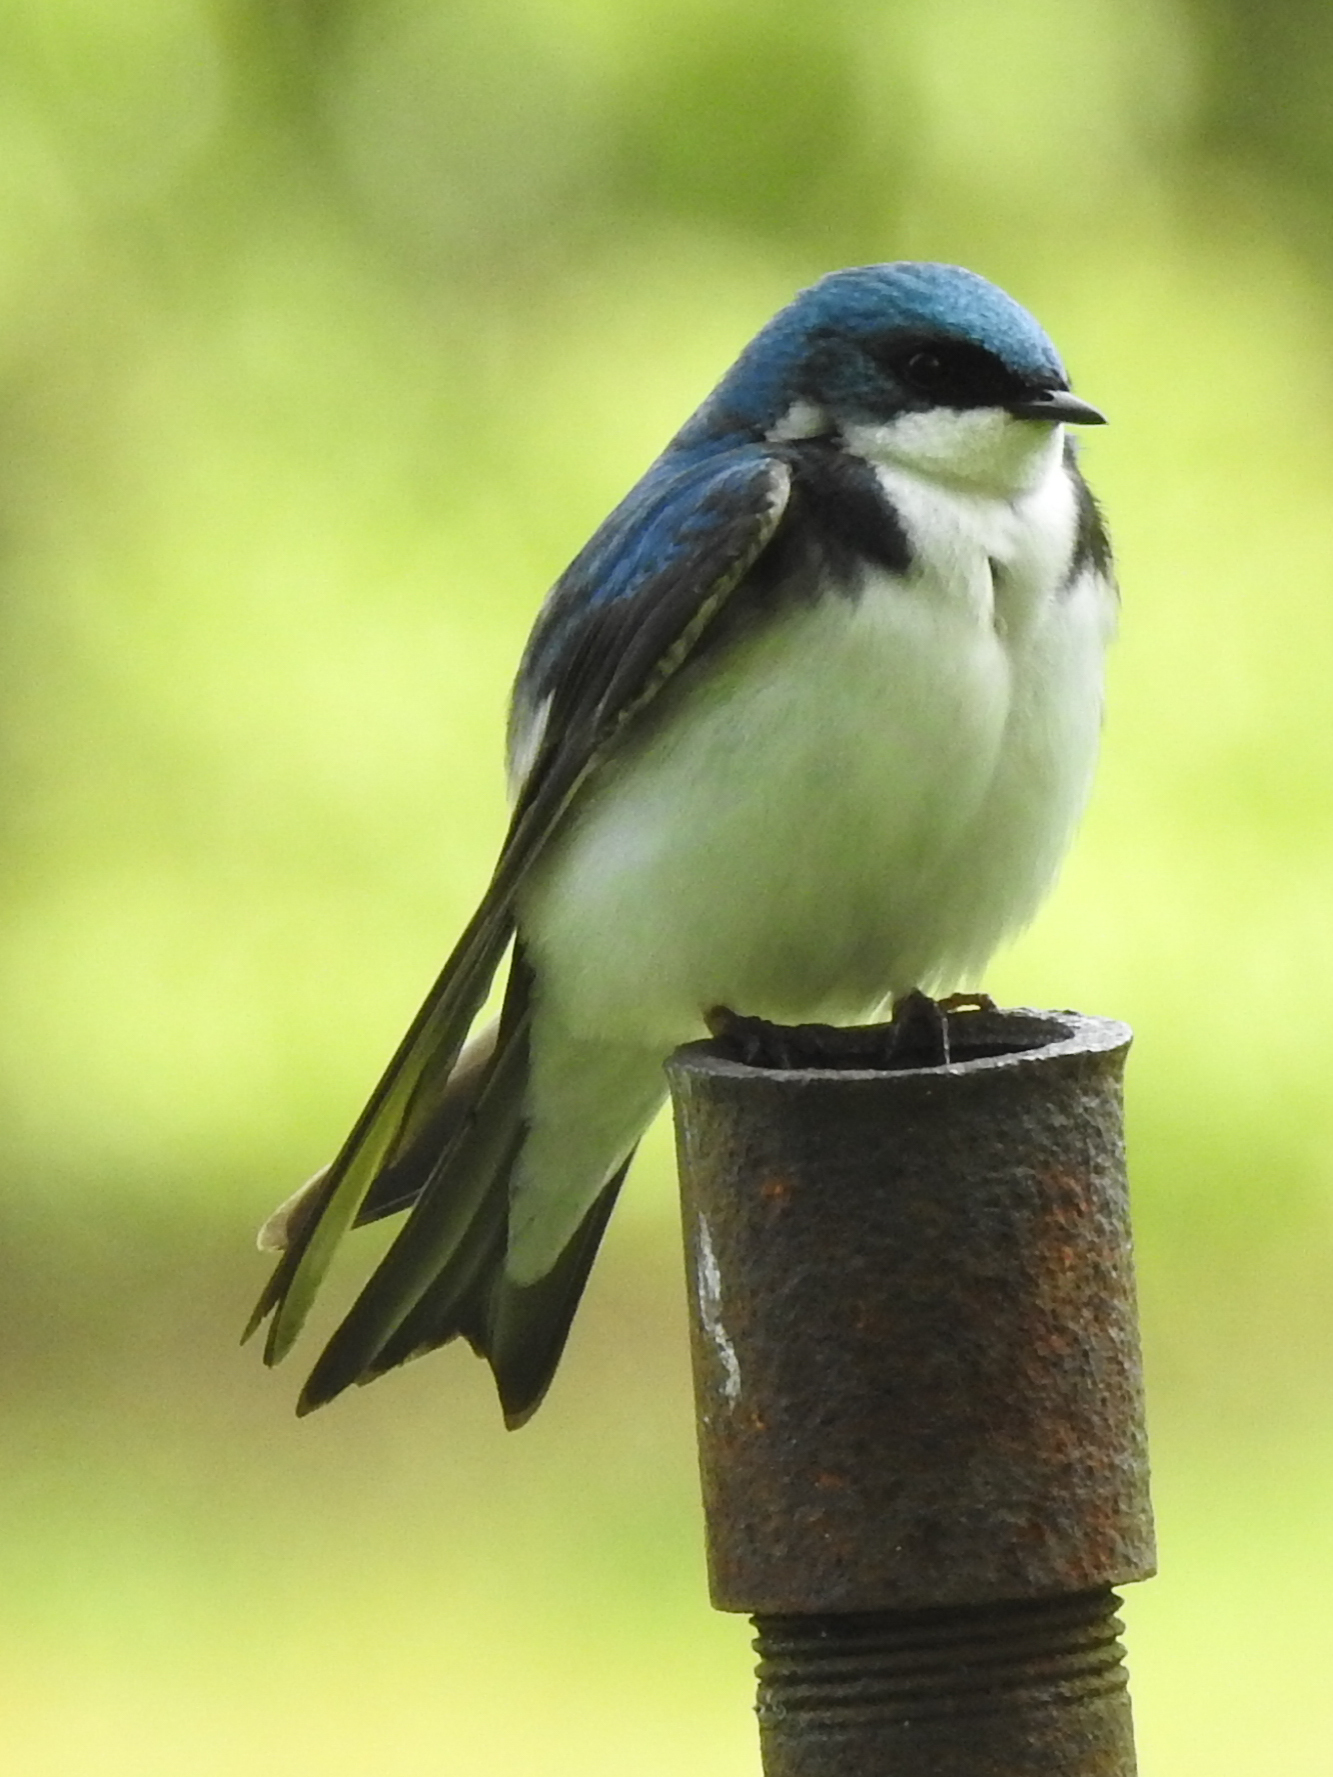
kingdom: Animalia
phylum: Chordata
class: Aves
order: Passeriformes
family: Hirundinidae
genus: Tachycineta
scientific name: Tachycineta bicolor
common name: Tree swallow
